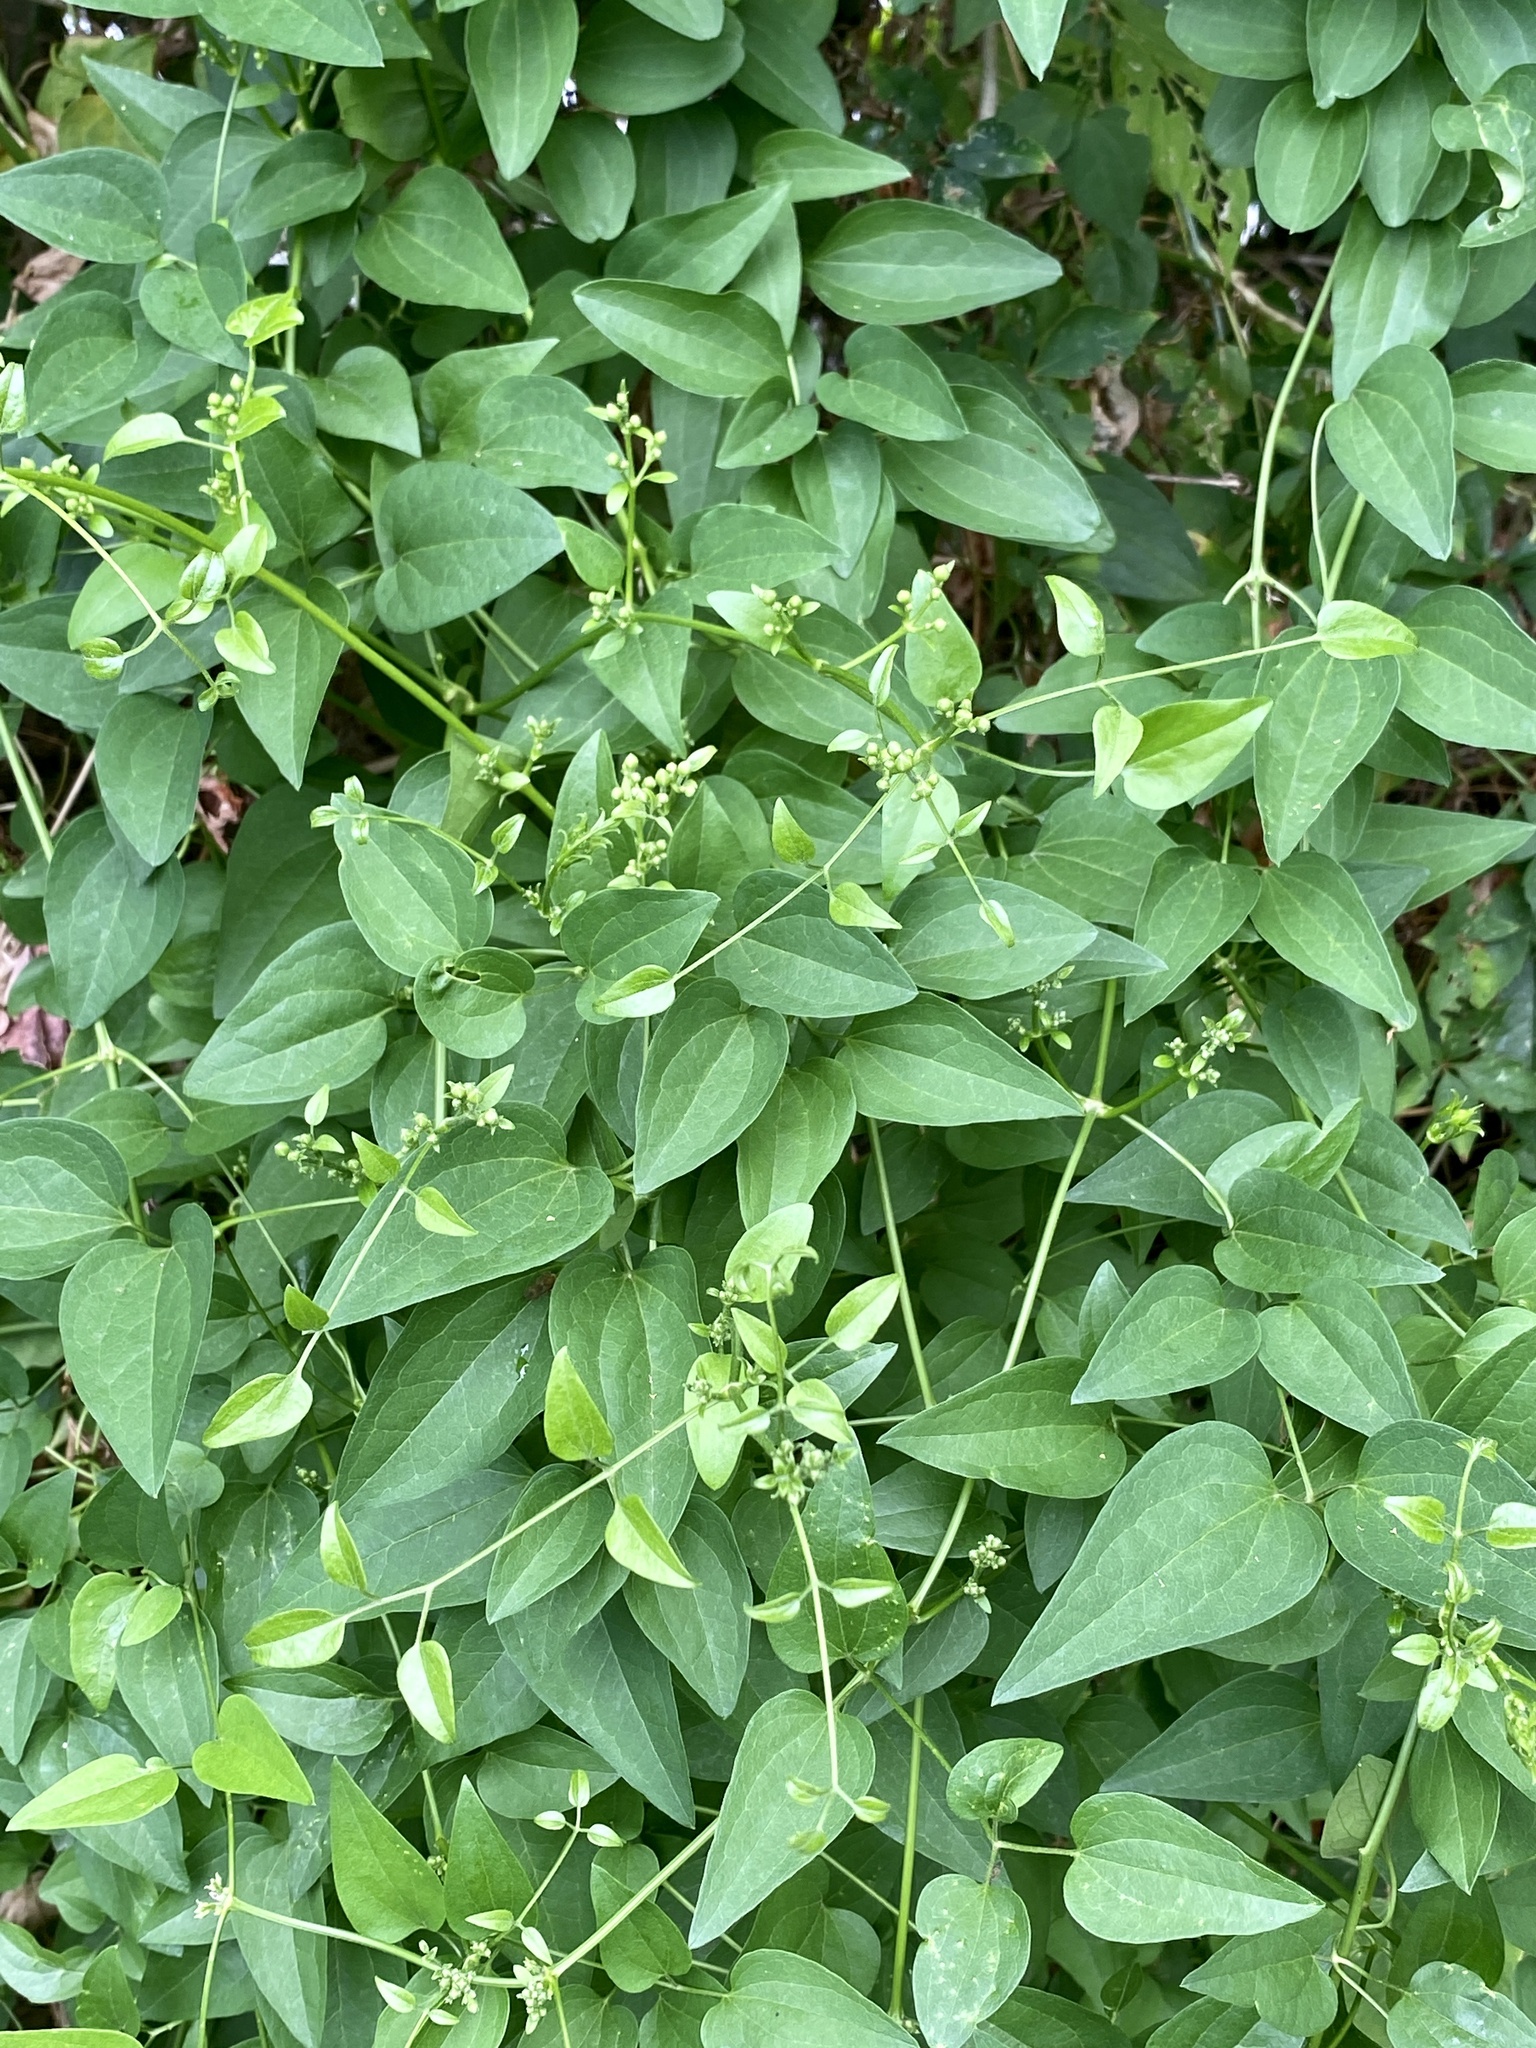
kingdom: Plantae
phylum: Tracheophyta
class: Magnoliopsida
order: Ranunculales
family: Ranunculaceae
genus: Clematis
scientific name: Clematis terniflora
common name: Sweet autumn clematis
